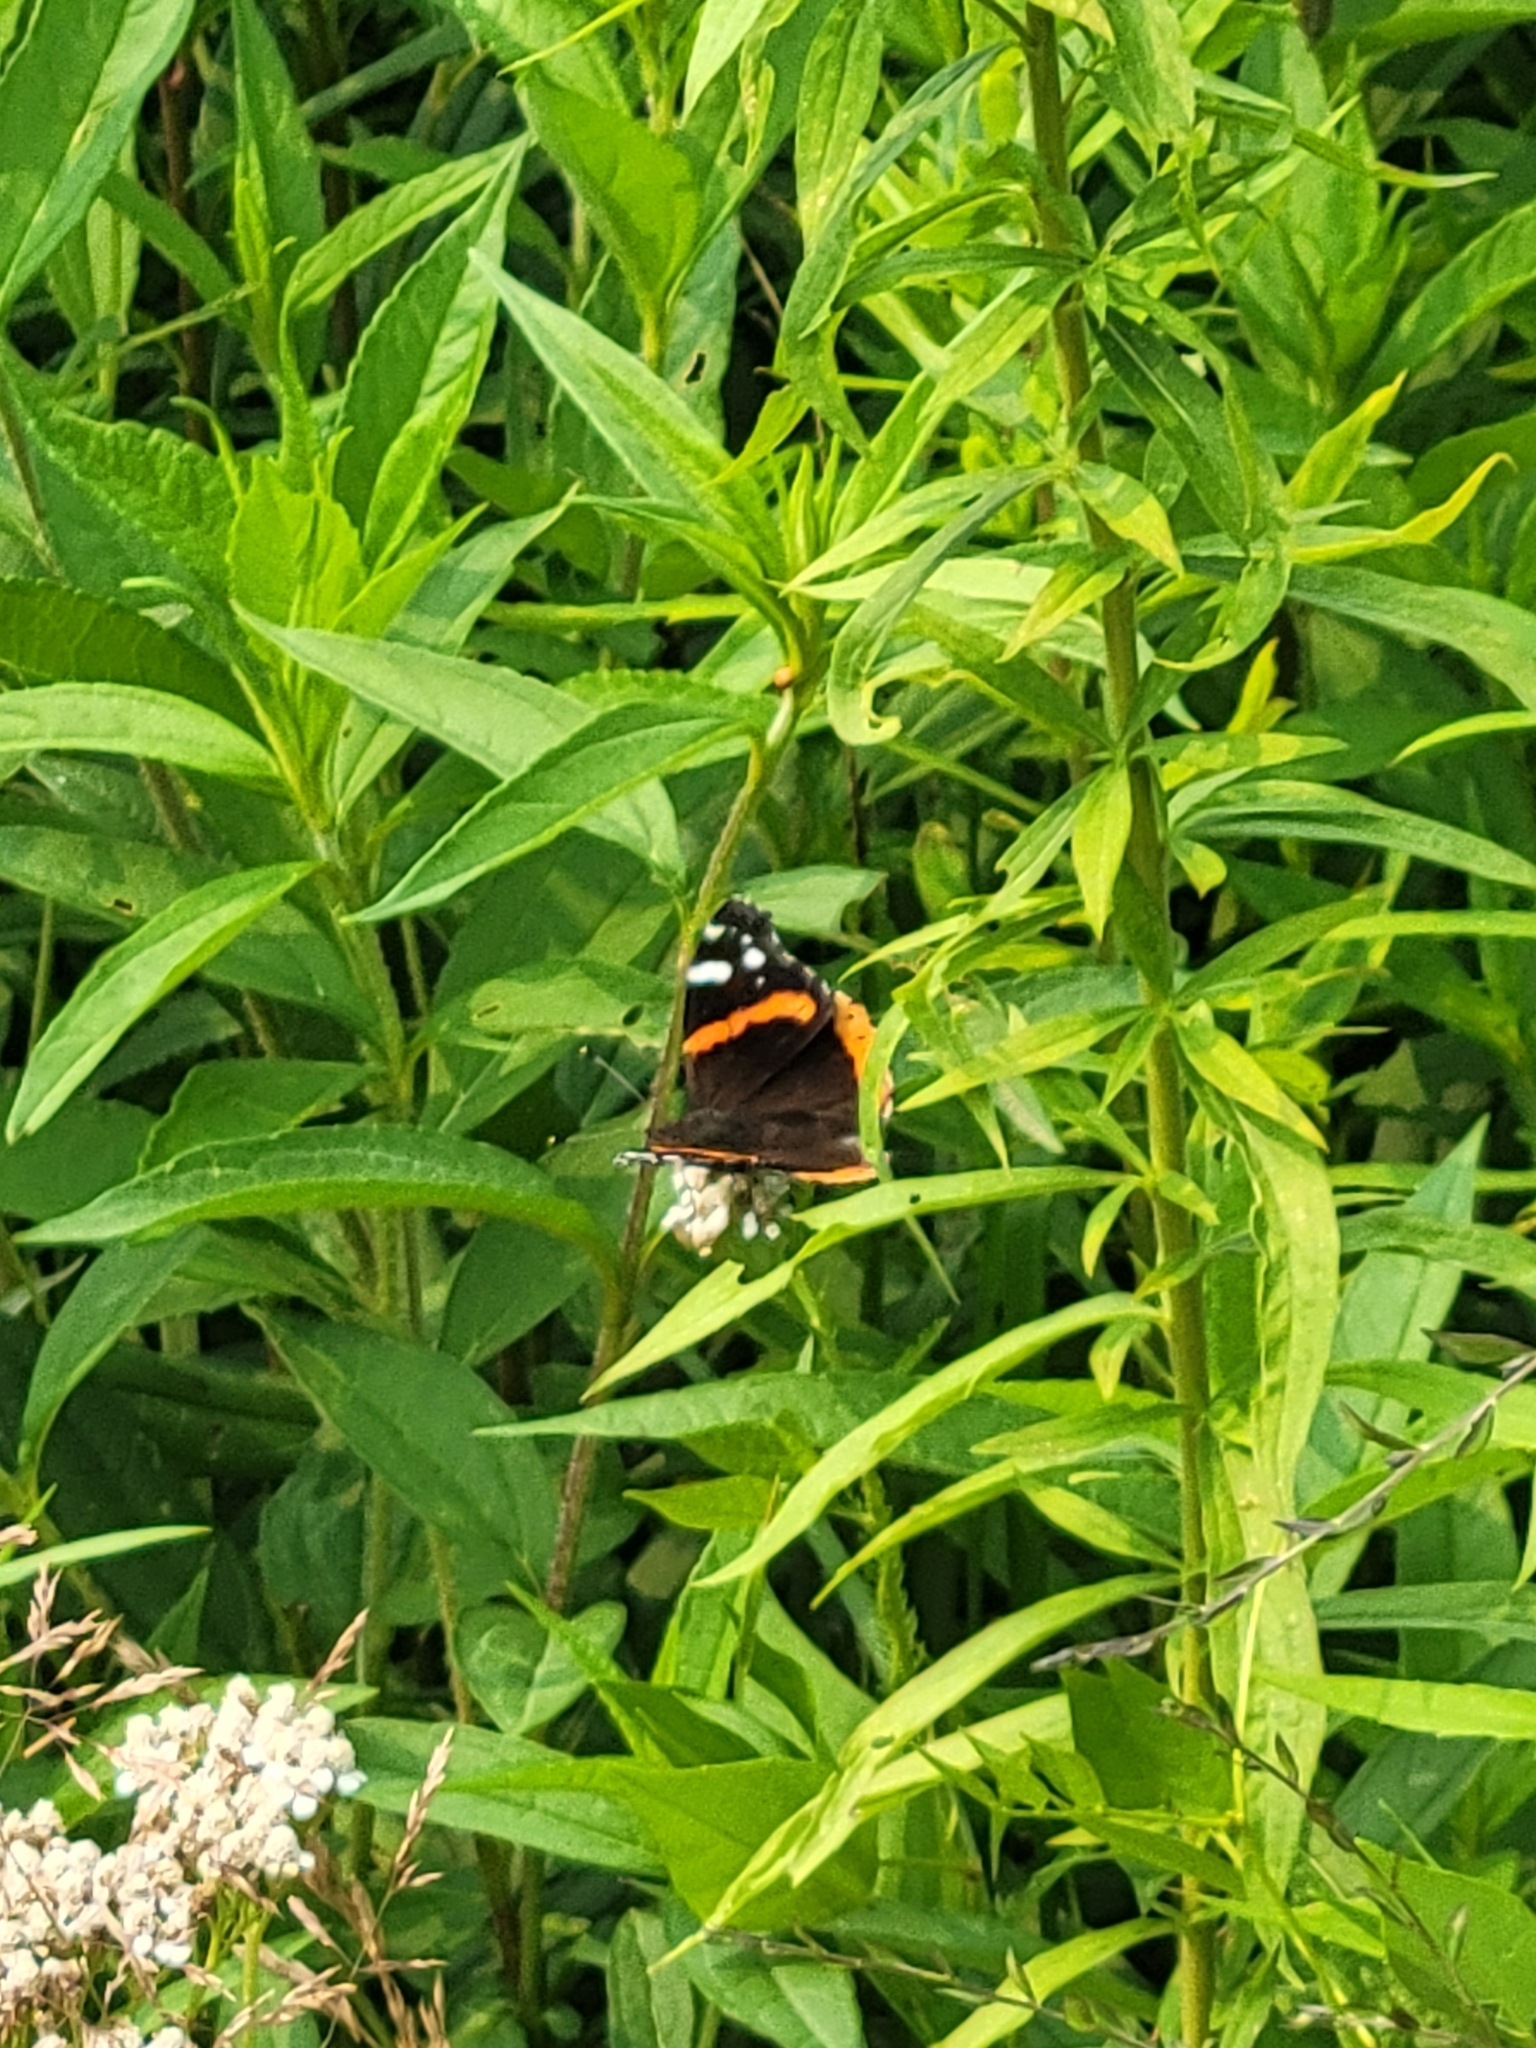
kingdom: Animalia
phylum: Arthropoda
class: Insecta
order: Lepidoptera
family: Nymphalidae
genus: Vanessa
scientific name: Vanessa atalanta
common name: Red admiral
